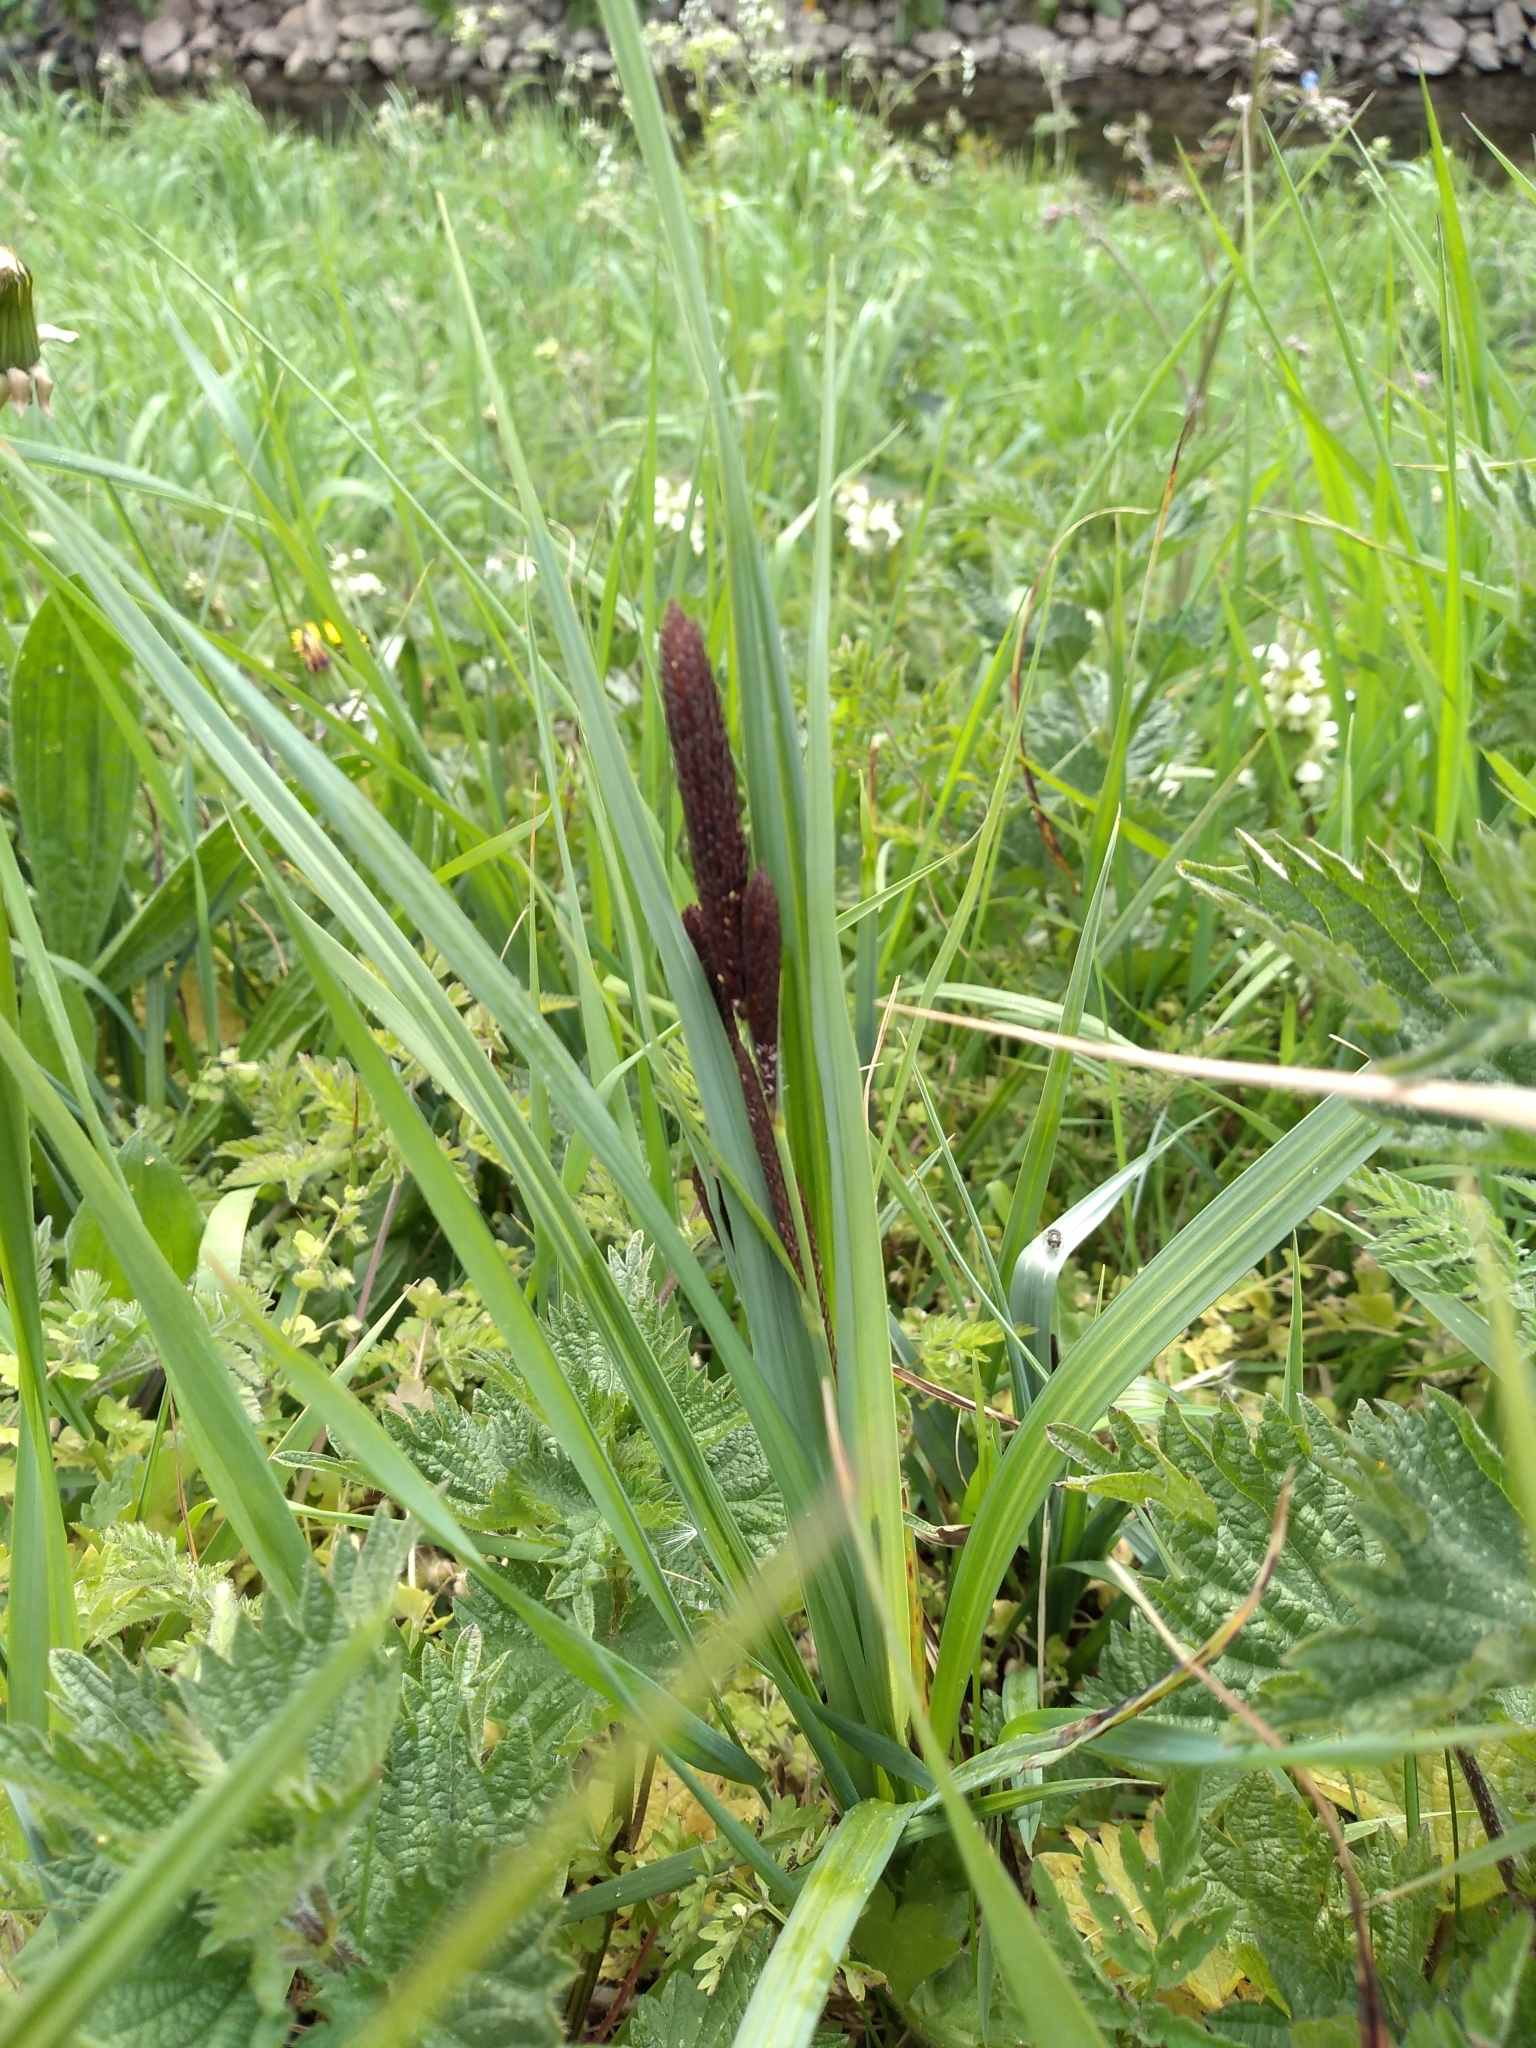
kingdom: Plantae
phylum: Tracheophyta
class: Liliopsida
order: Poales
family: Cyperaceae
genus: Carex
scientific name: Carex flacca
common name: Glaucous sedge
